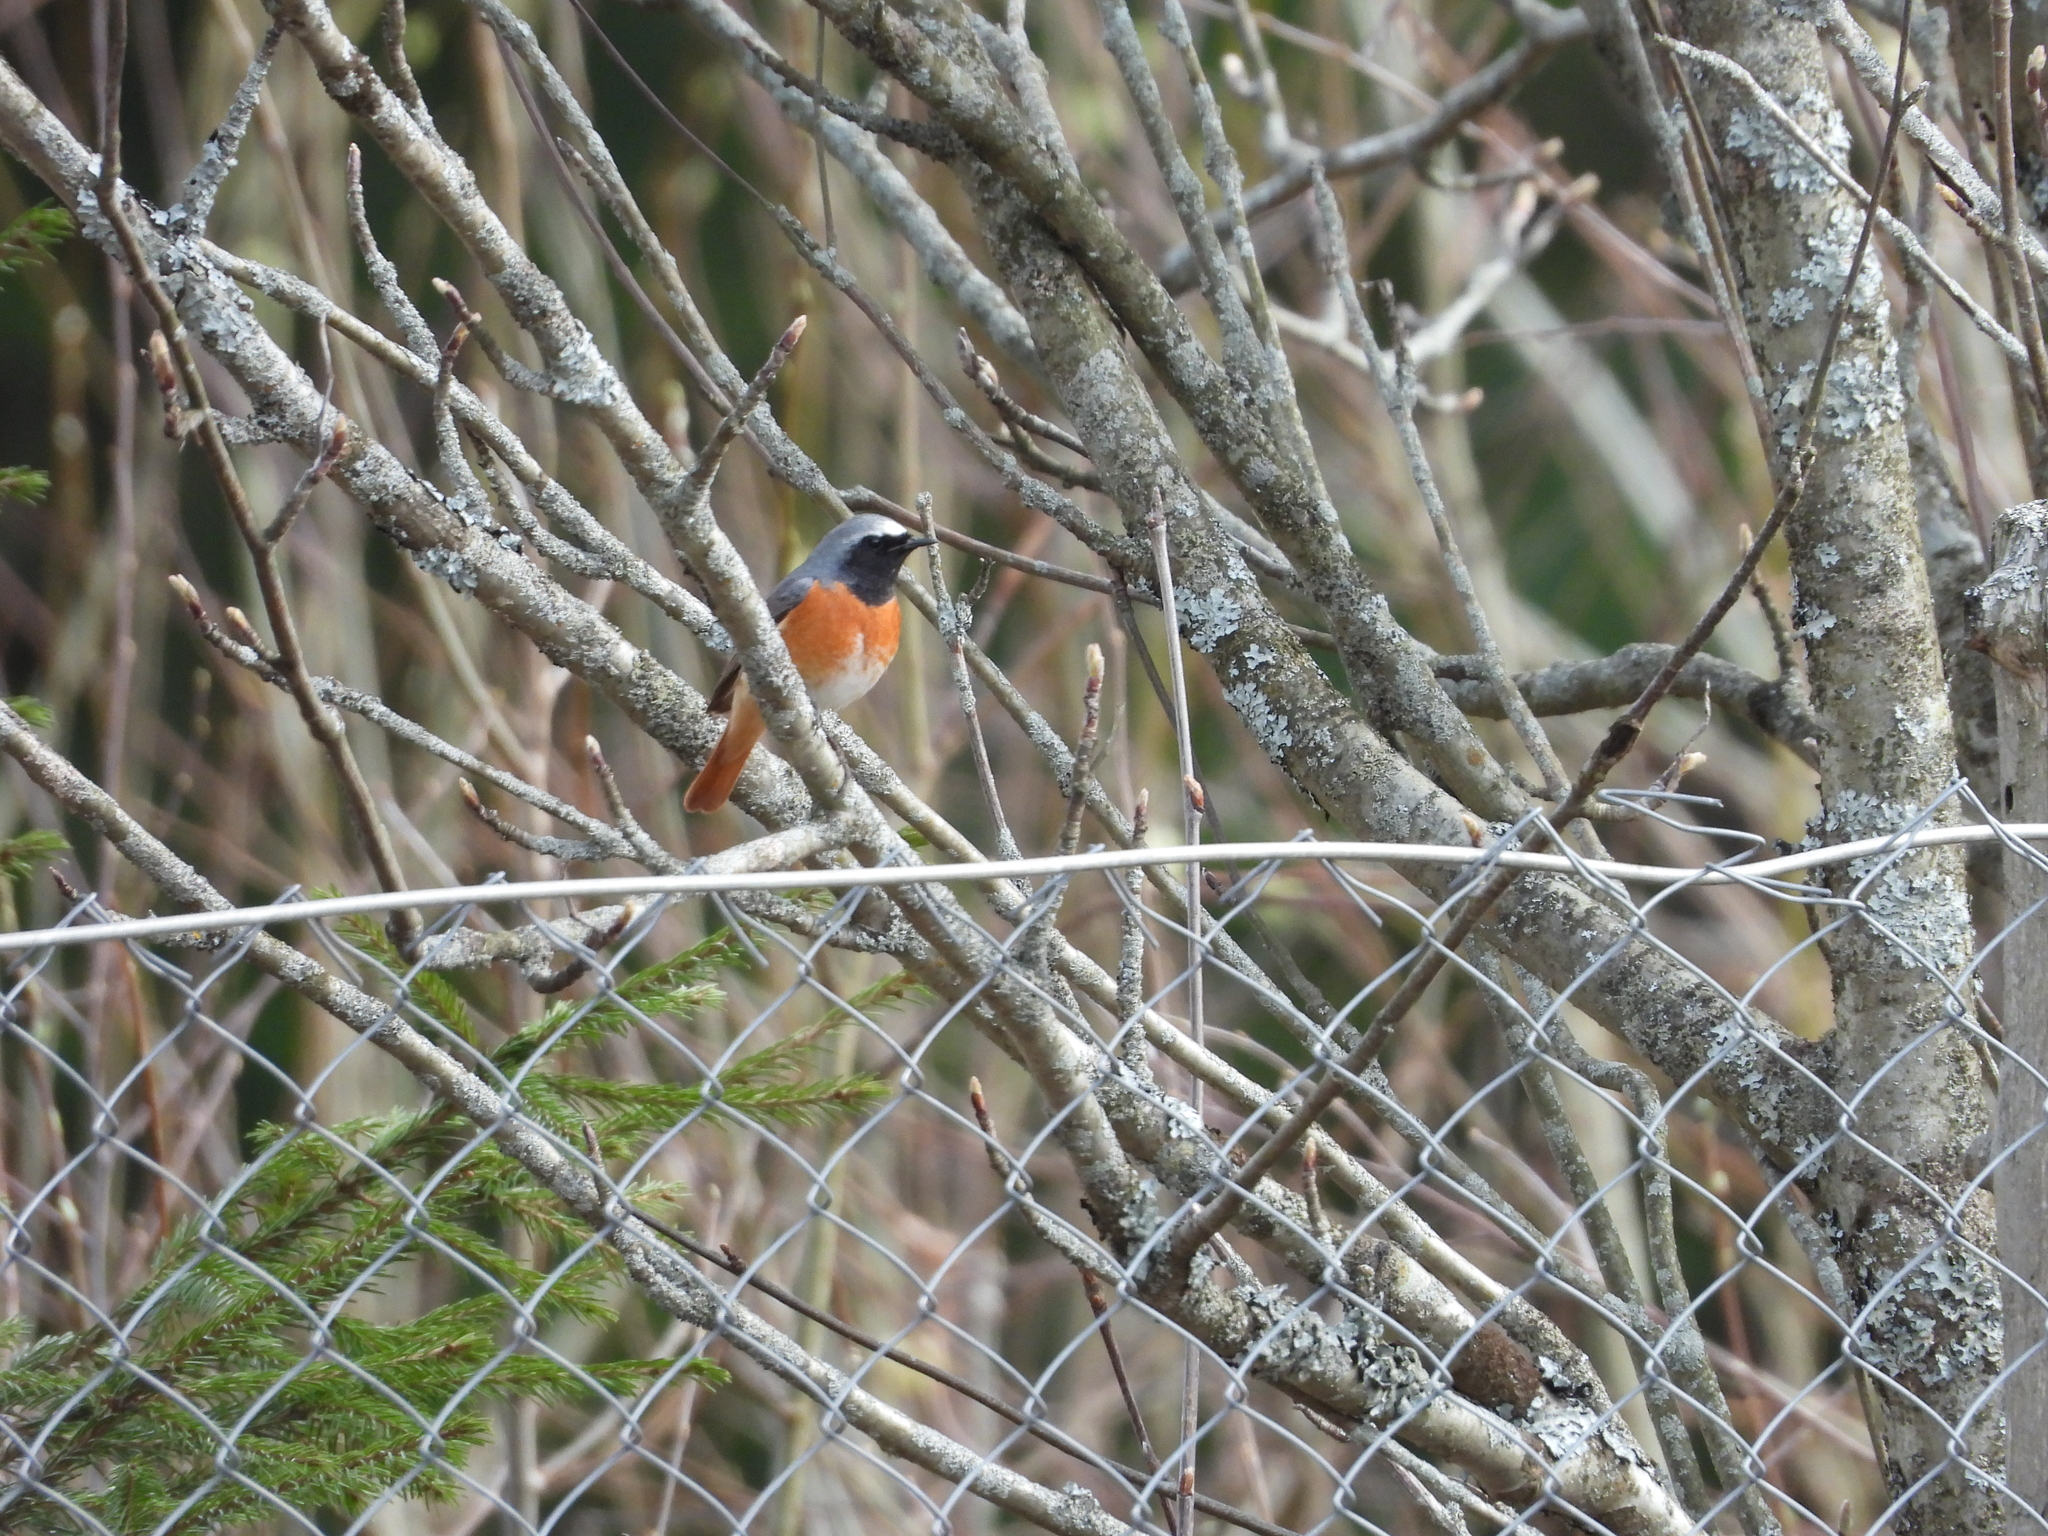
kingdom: Animalia
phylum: Chordata
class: Aves
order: Passeriformes
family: Muscicapidae
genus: Phoenicurus
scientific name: Phoenicurus phoenicurus
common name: Common redstart
